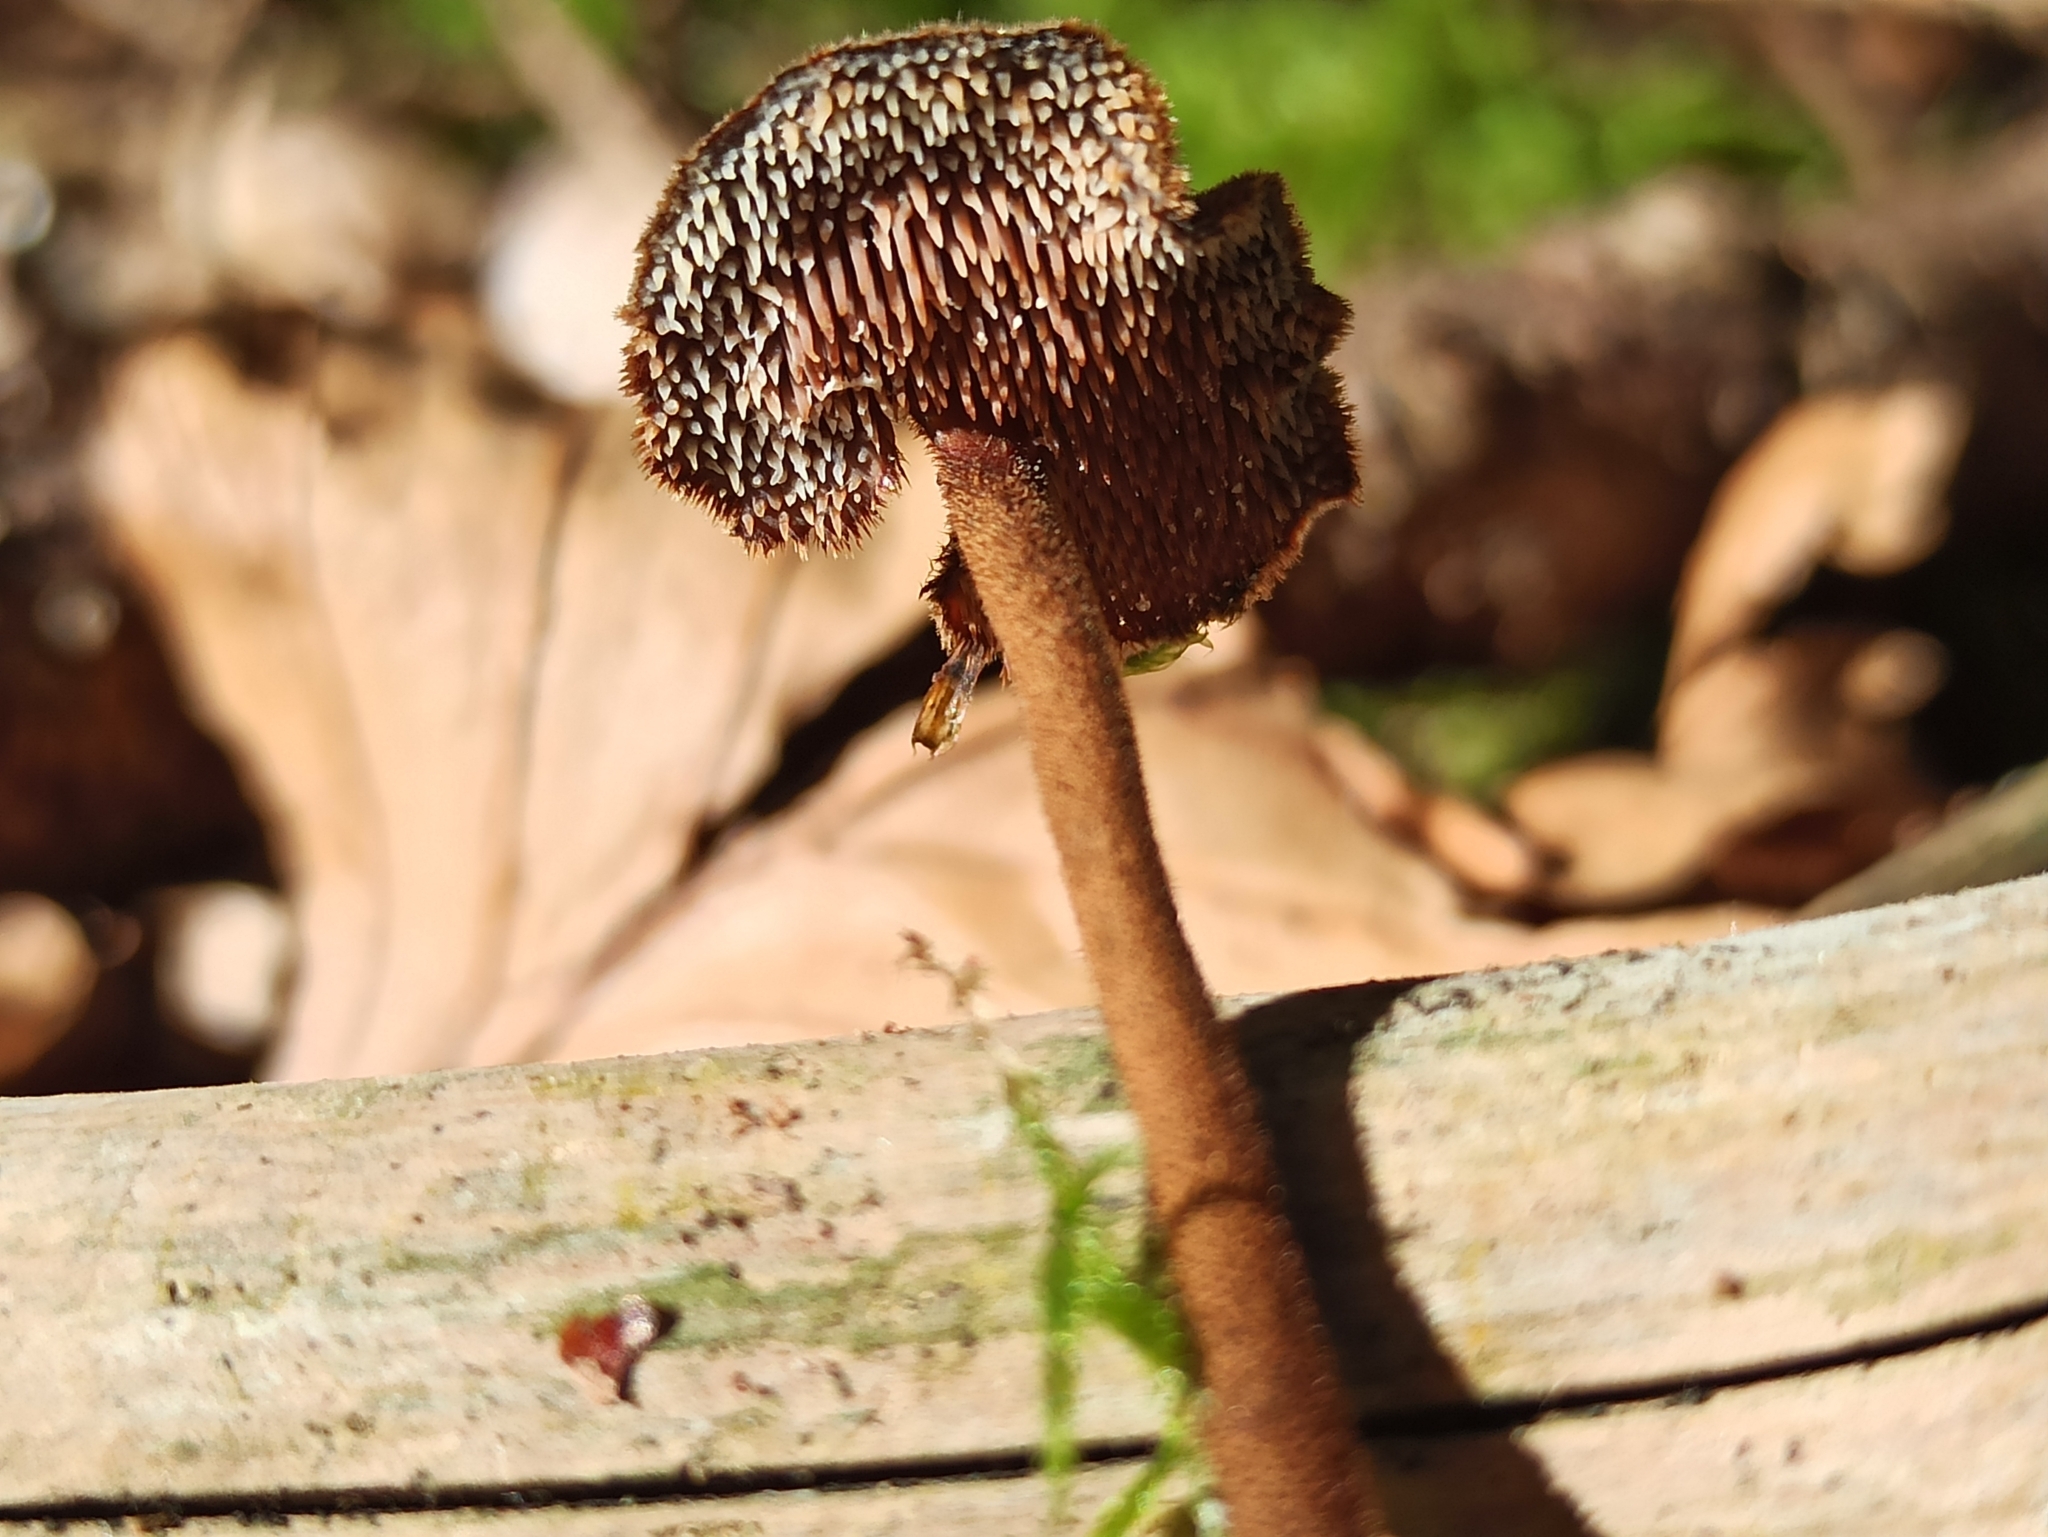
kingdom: Fungi
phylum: Basidiomycota
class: Agaricomycetes
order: Russulales
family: Auriscalpiaceae
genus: Auriscalpium
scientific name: Auriscalpium vulgare
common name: Earpick fungus
